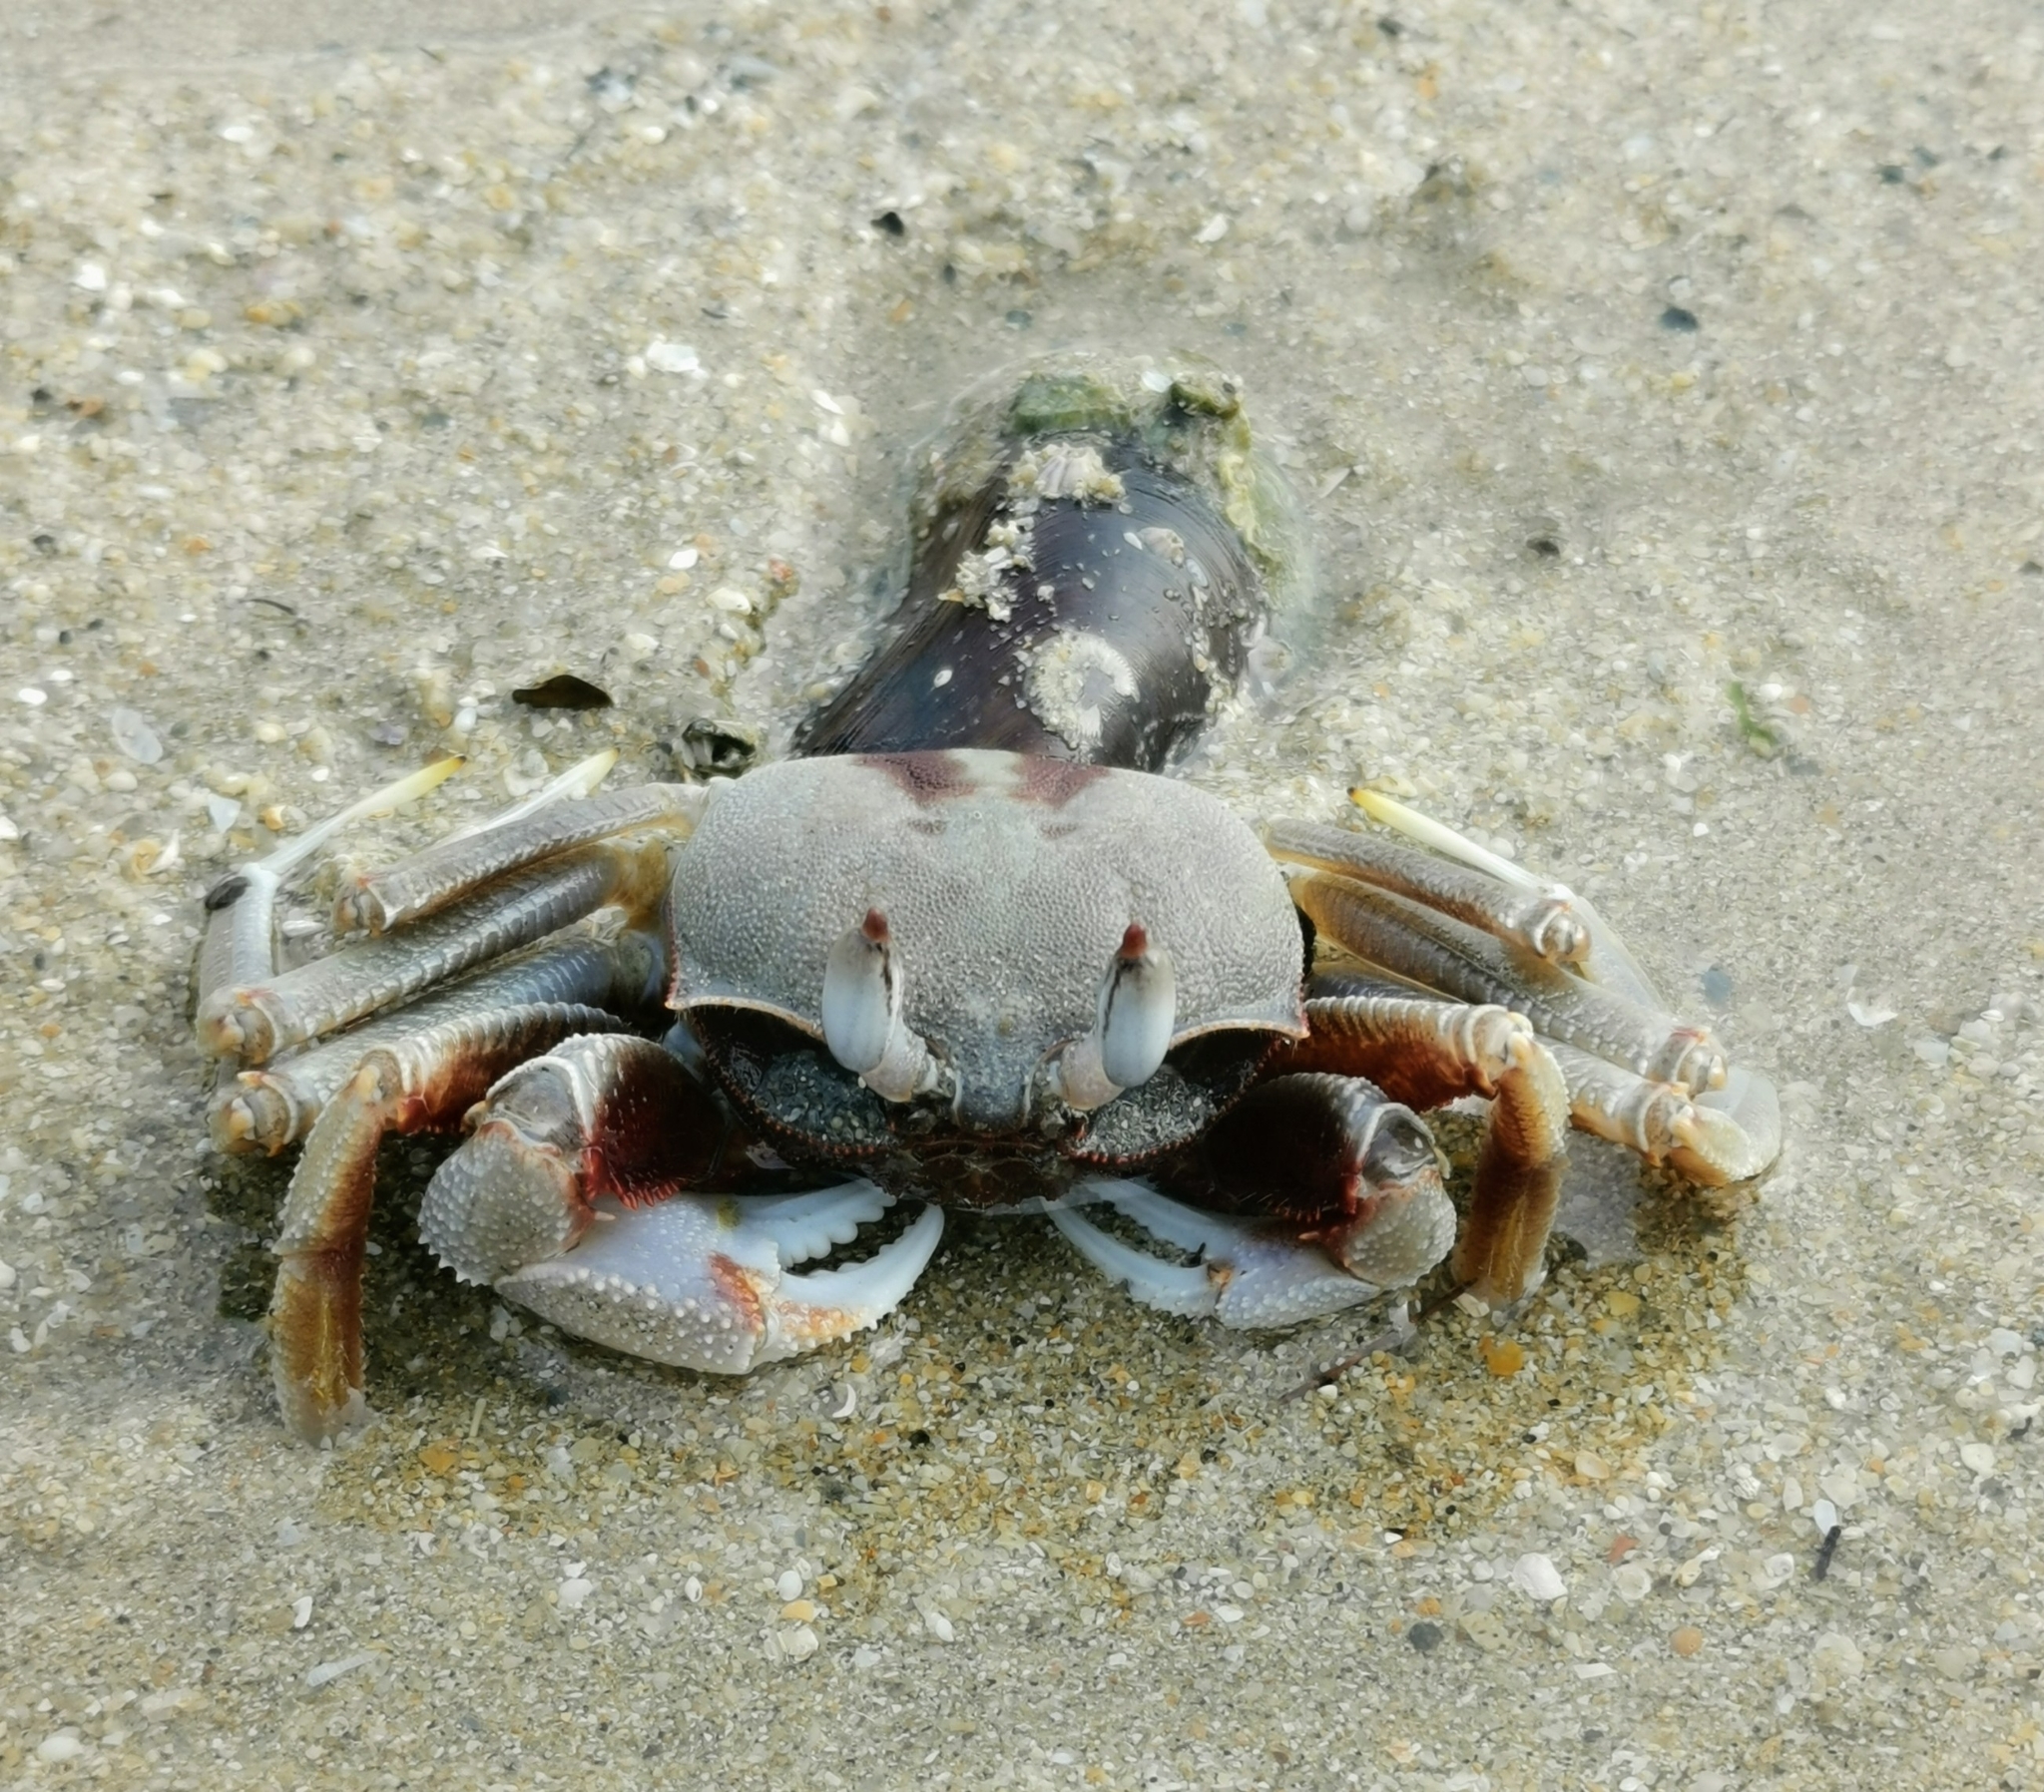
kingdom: Animalia
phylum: Arthropoda
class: Malacostraca
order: Decapoda
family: Ocypodidae
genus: Ocypode
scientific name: Ocypode ceratophthalmus
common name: Indo-pacific ghost crab
